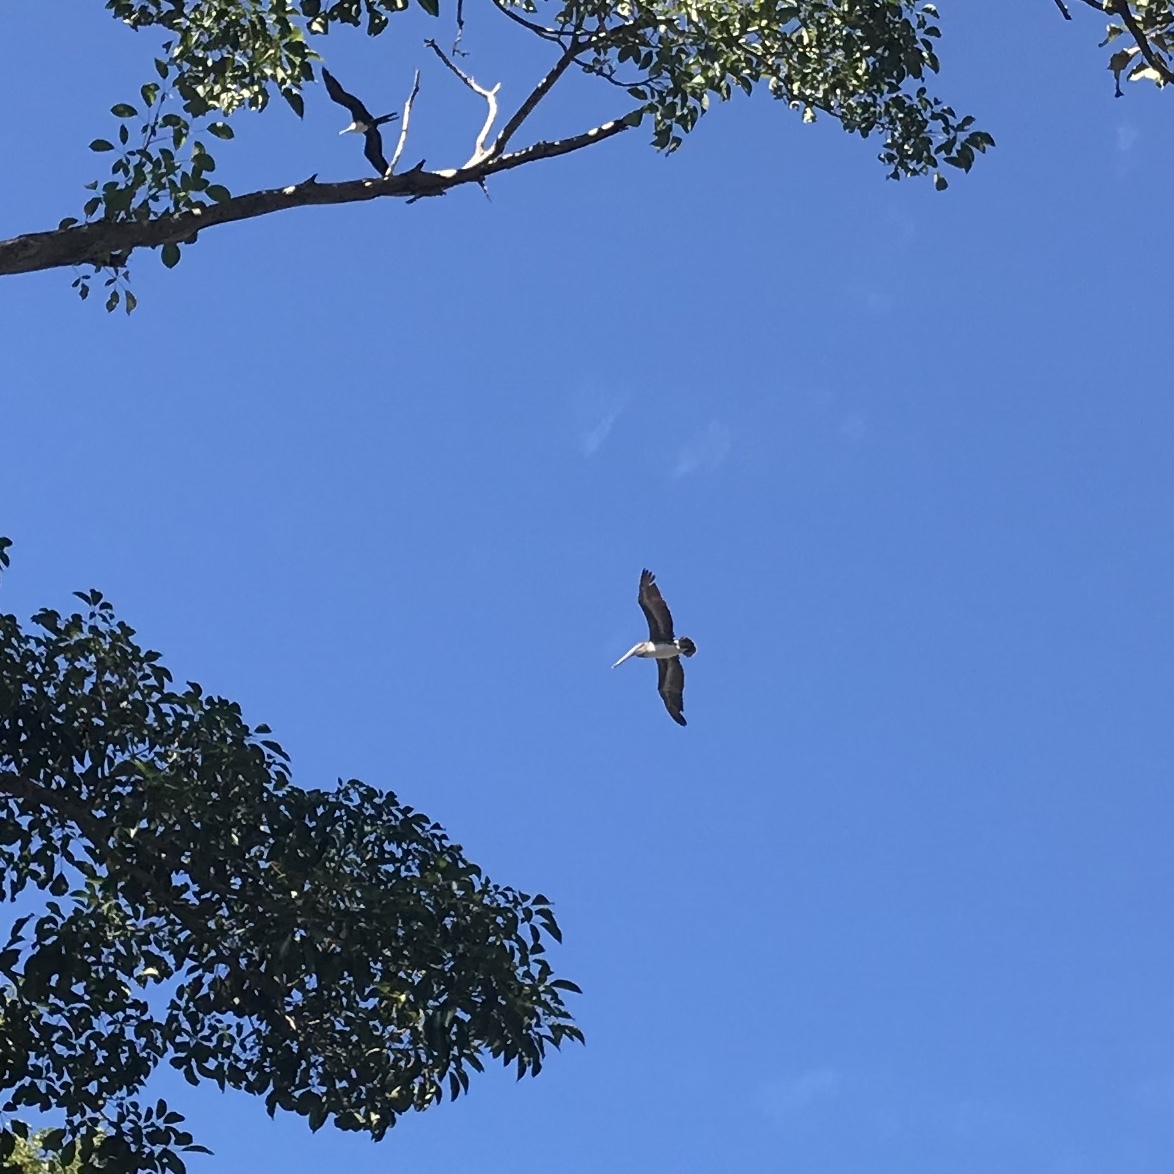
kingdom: Animalia
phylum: Chordata
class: Aves
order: Pelecaniformes
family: Pelecanidae
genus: Pelecanus
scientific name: Pelecanus occidentalis
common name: Brown pelican
